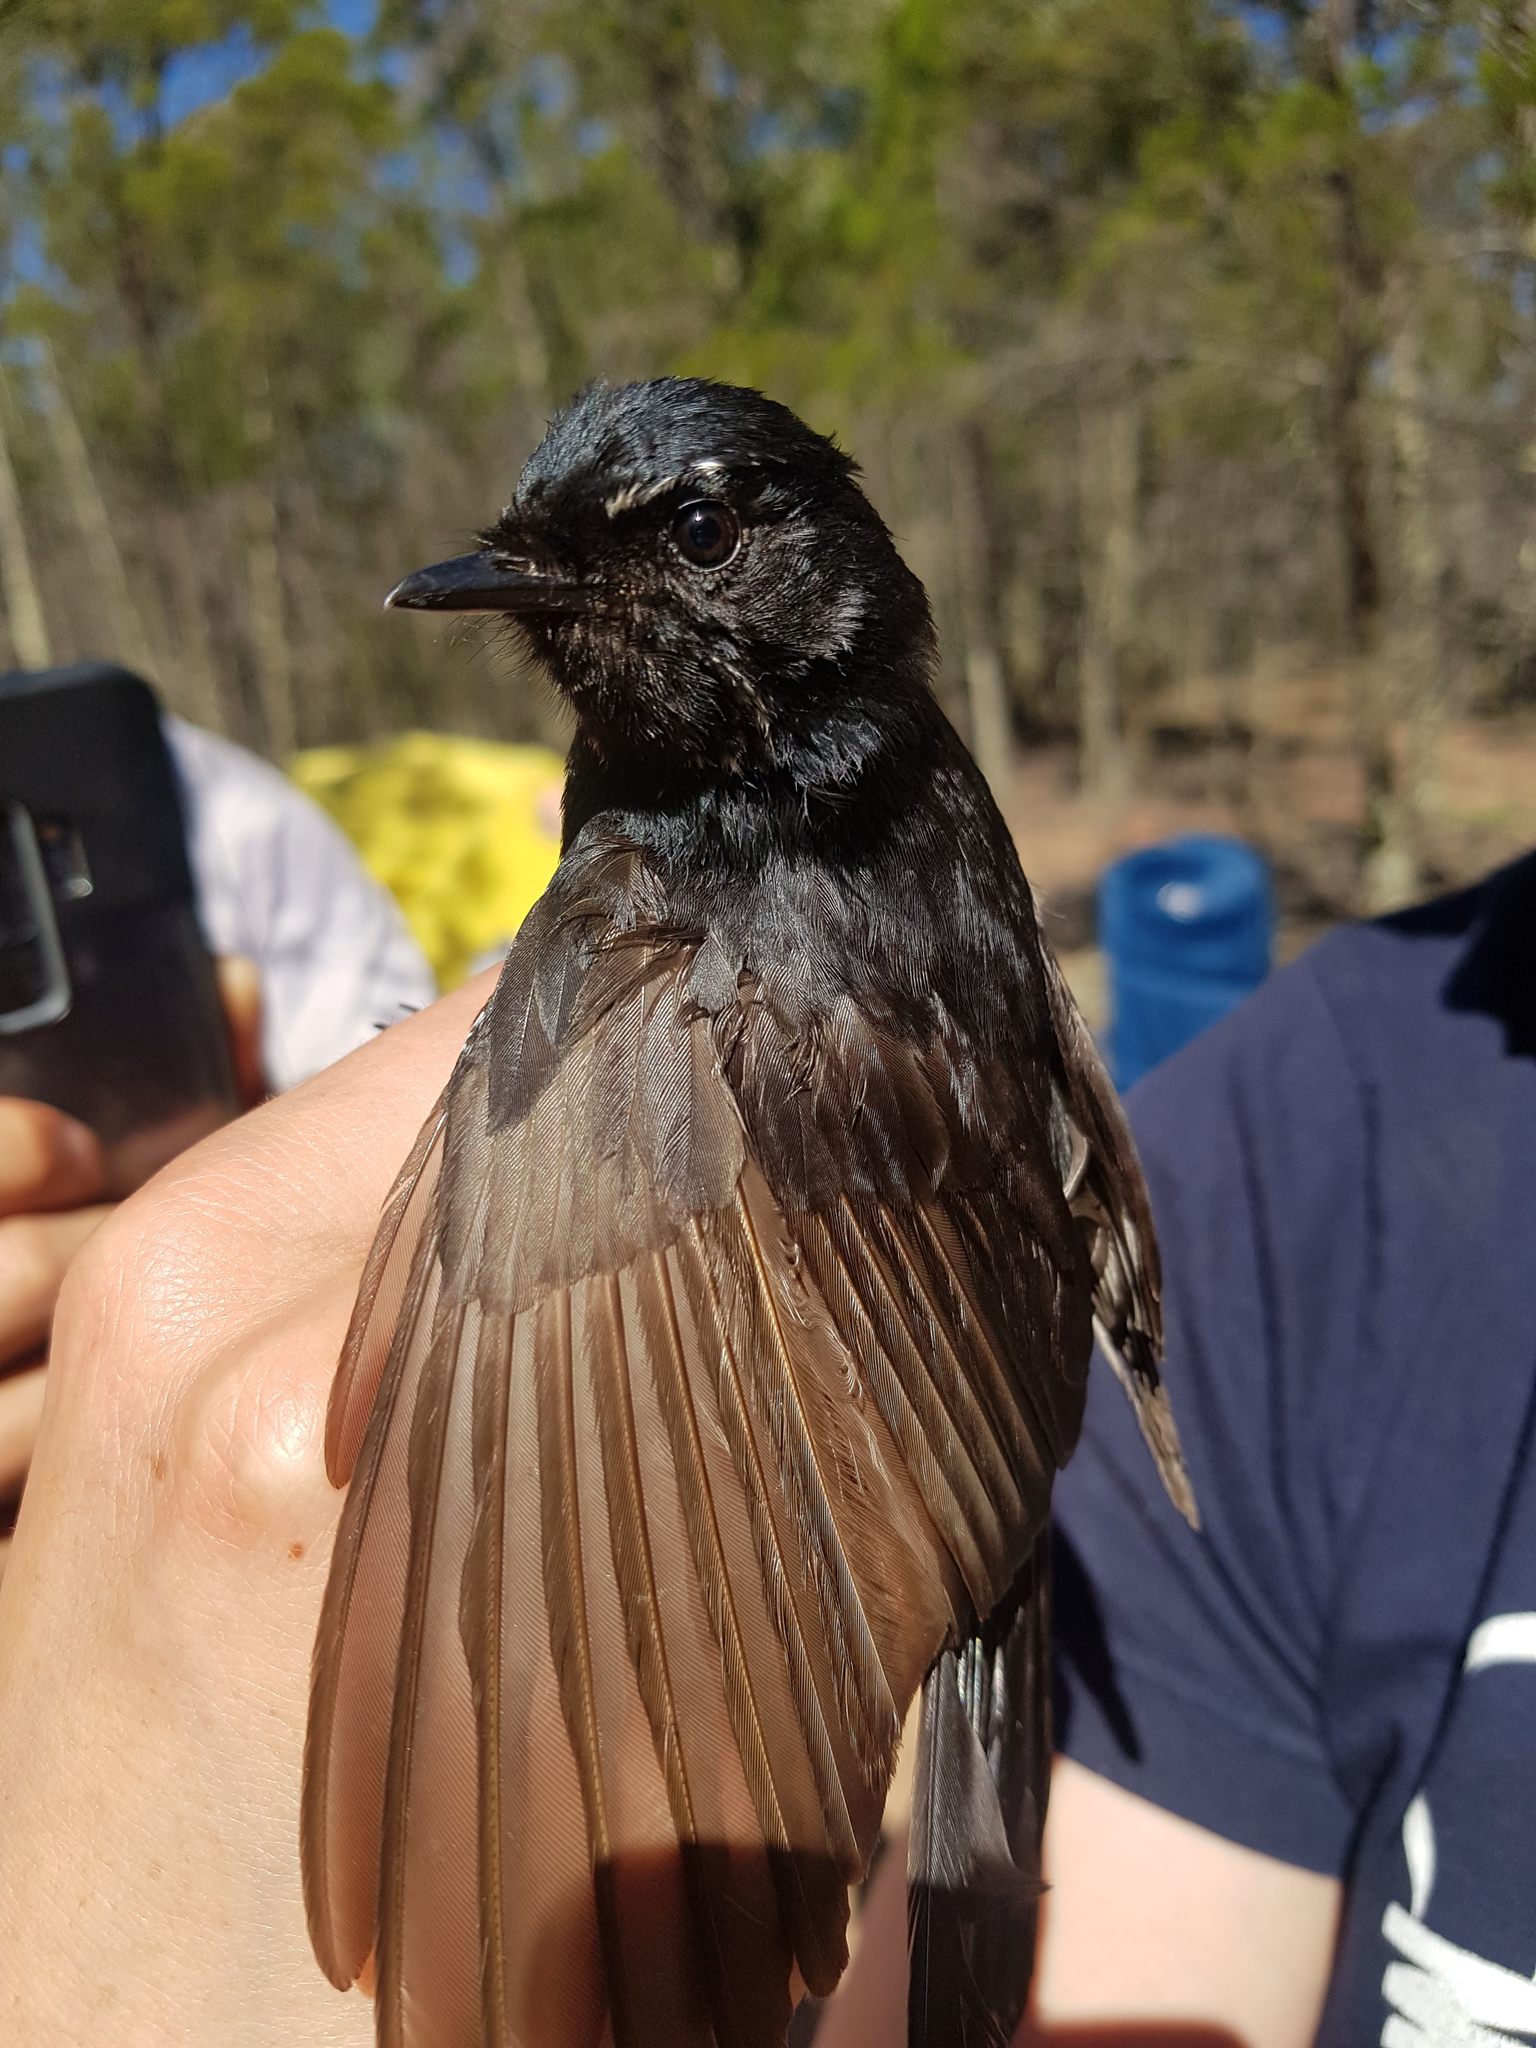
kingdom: Animalia
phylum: Chordata
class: Aves
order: Passeriformes
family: Rhipiduridae
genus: Rhipidura
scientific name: Rhipidura leucophrys
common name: Willie wagtail
